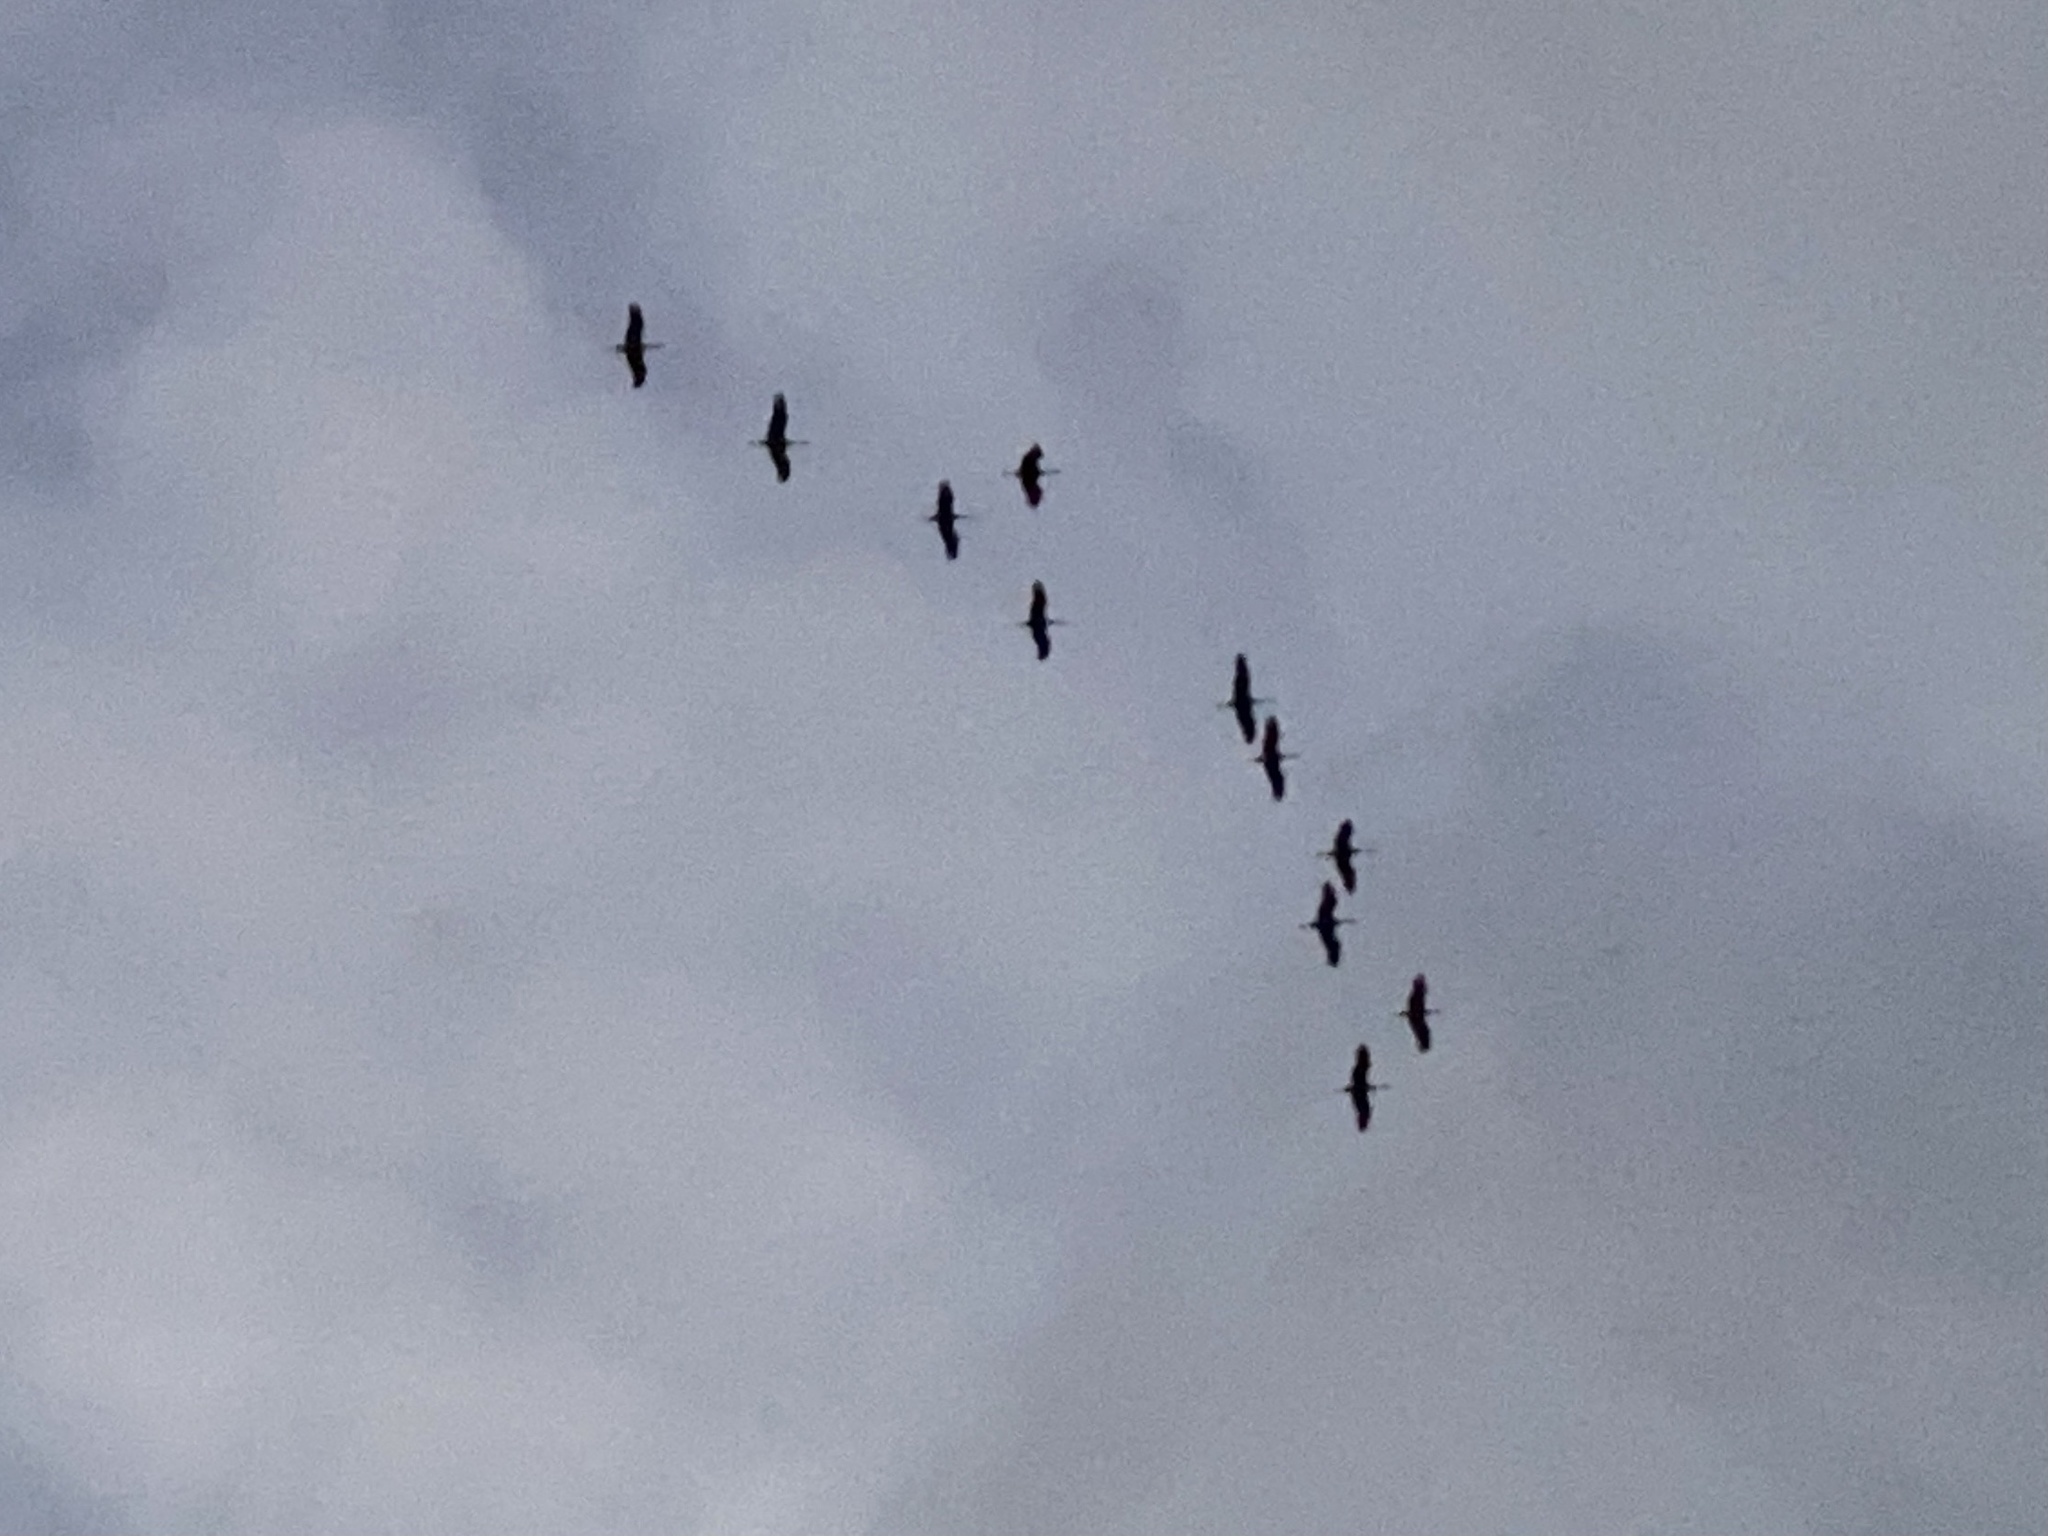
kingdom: Animalia
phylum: Chordata
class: Aves
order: Gruiformes
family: Gruidae
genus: Grus
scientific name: Grus canadensis
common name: Sandhill crane
